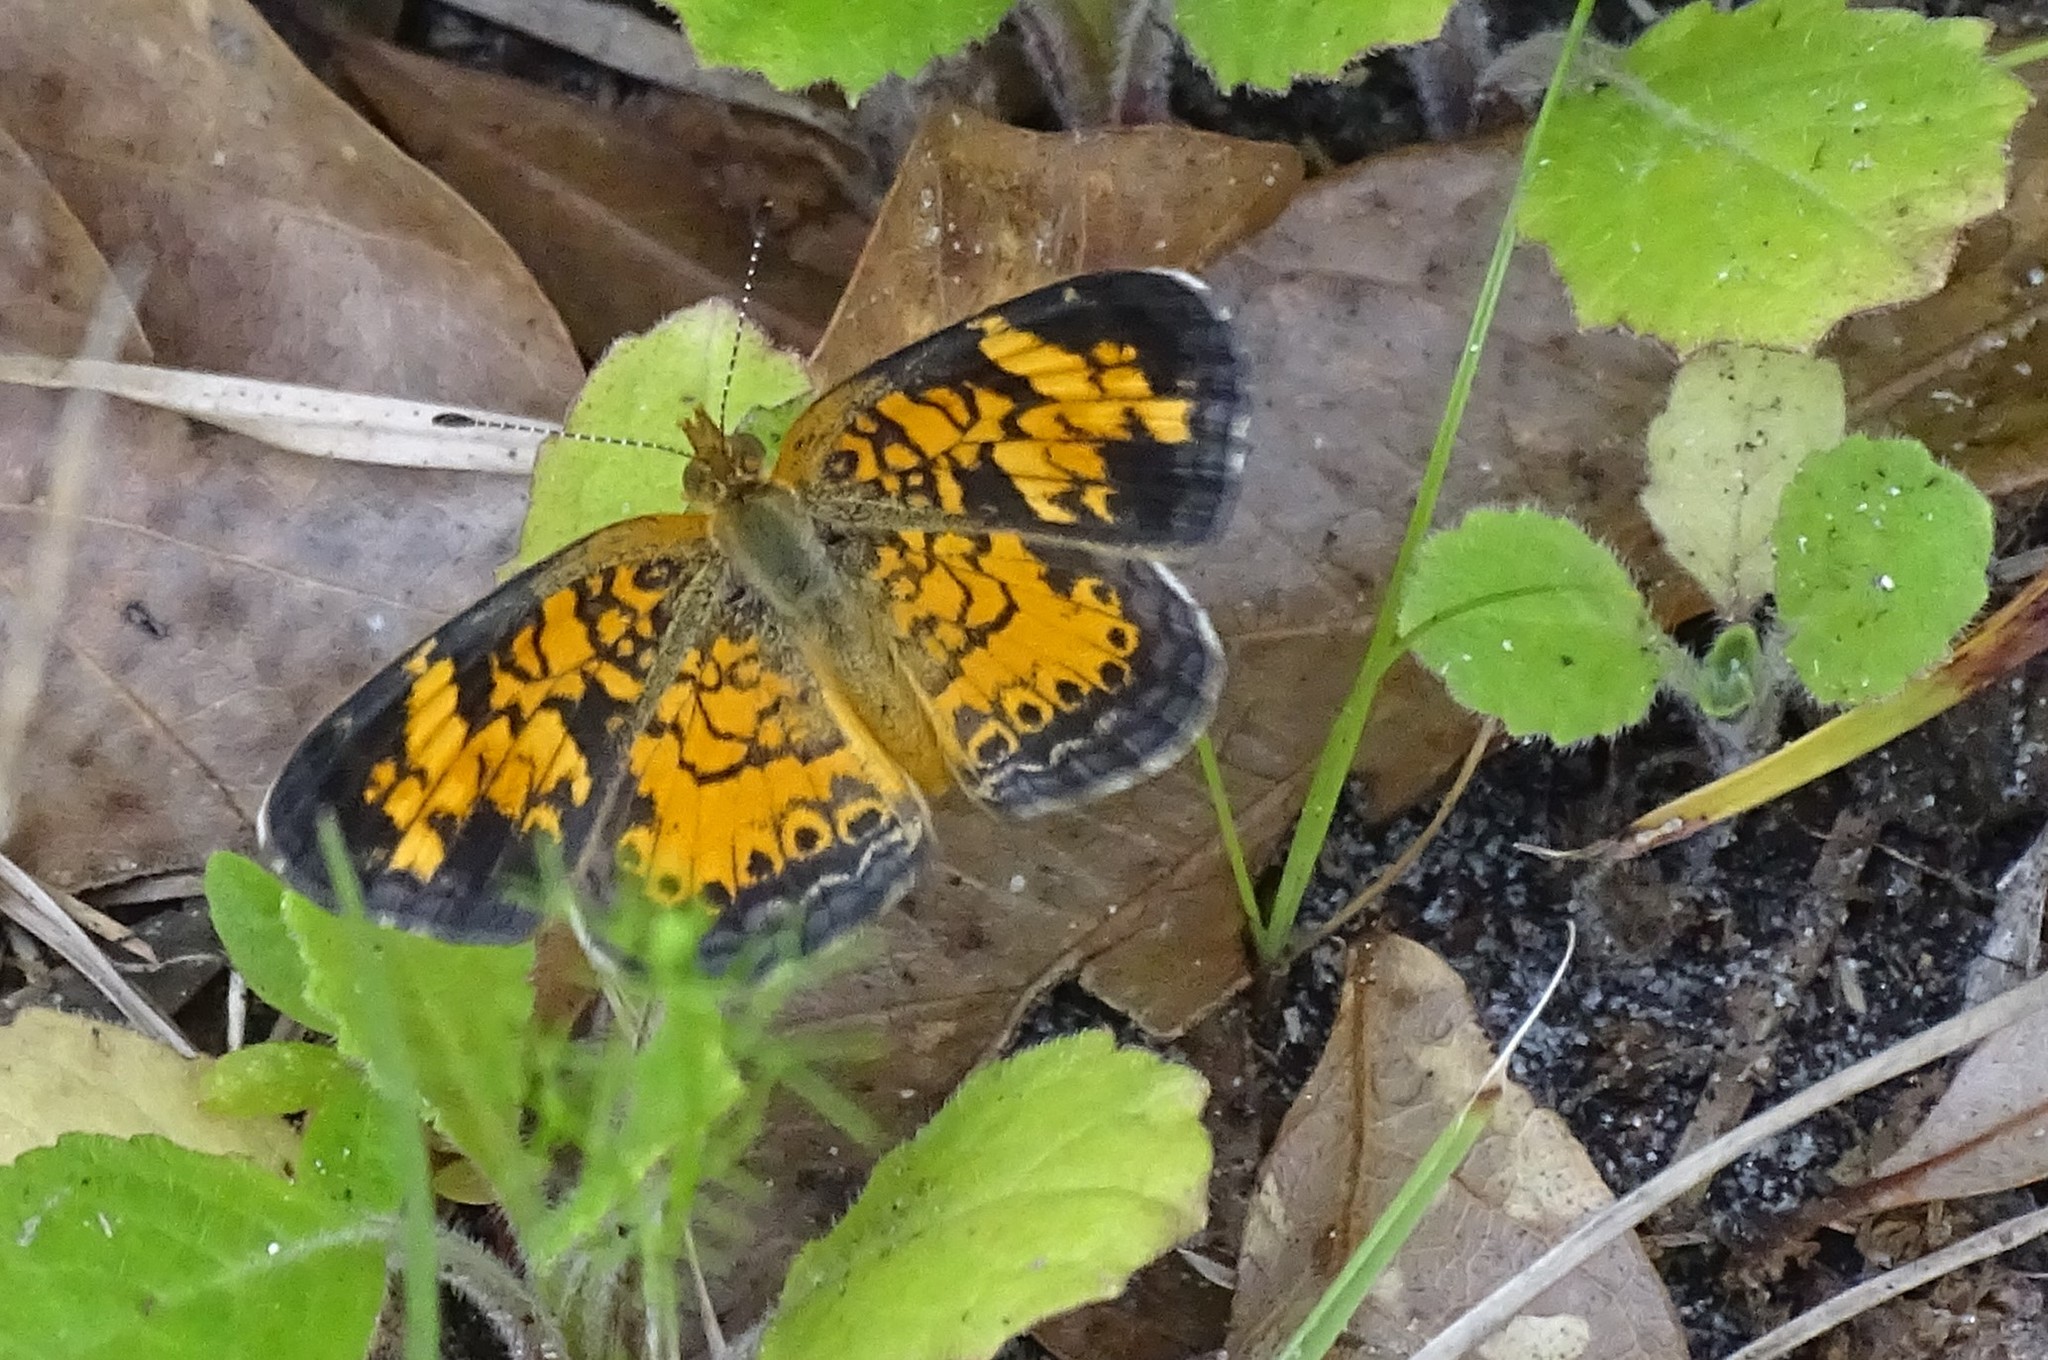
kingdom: Animalia
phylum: Arthropoda
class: Insecta
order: Lepidoptera
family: Nymphalidae
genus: Phyciodes
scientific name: Phyciodes tharos
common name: Pearl crescent
